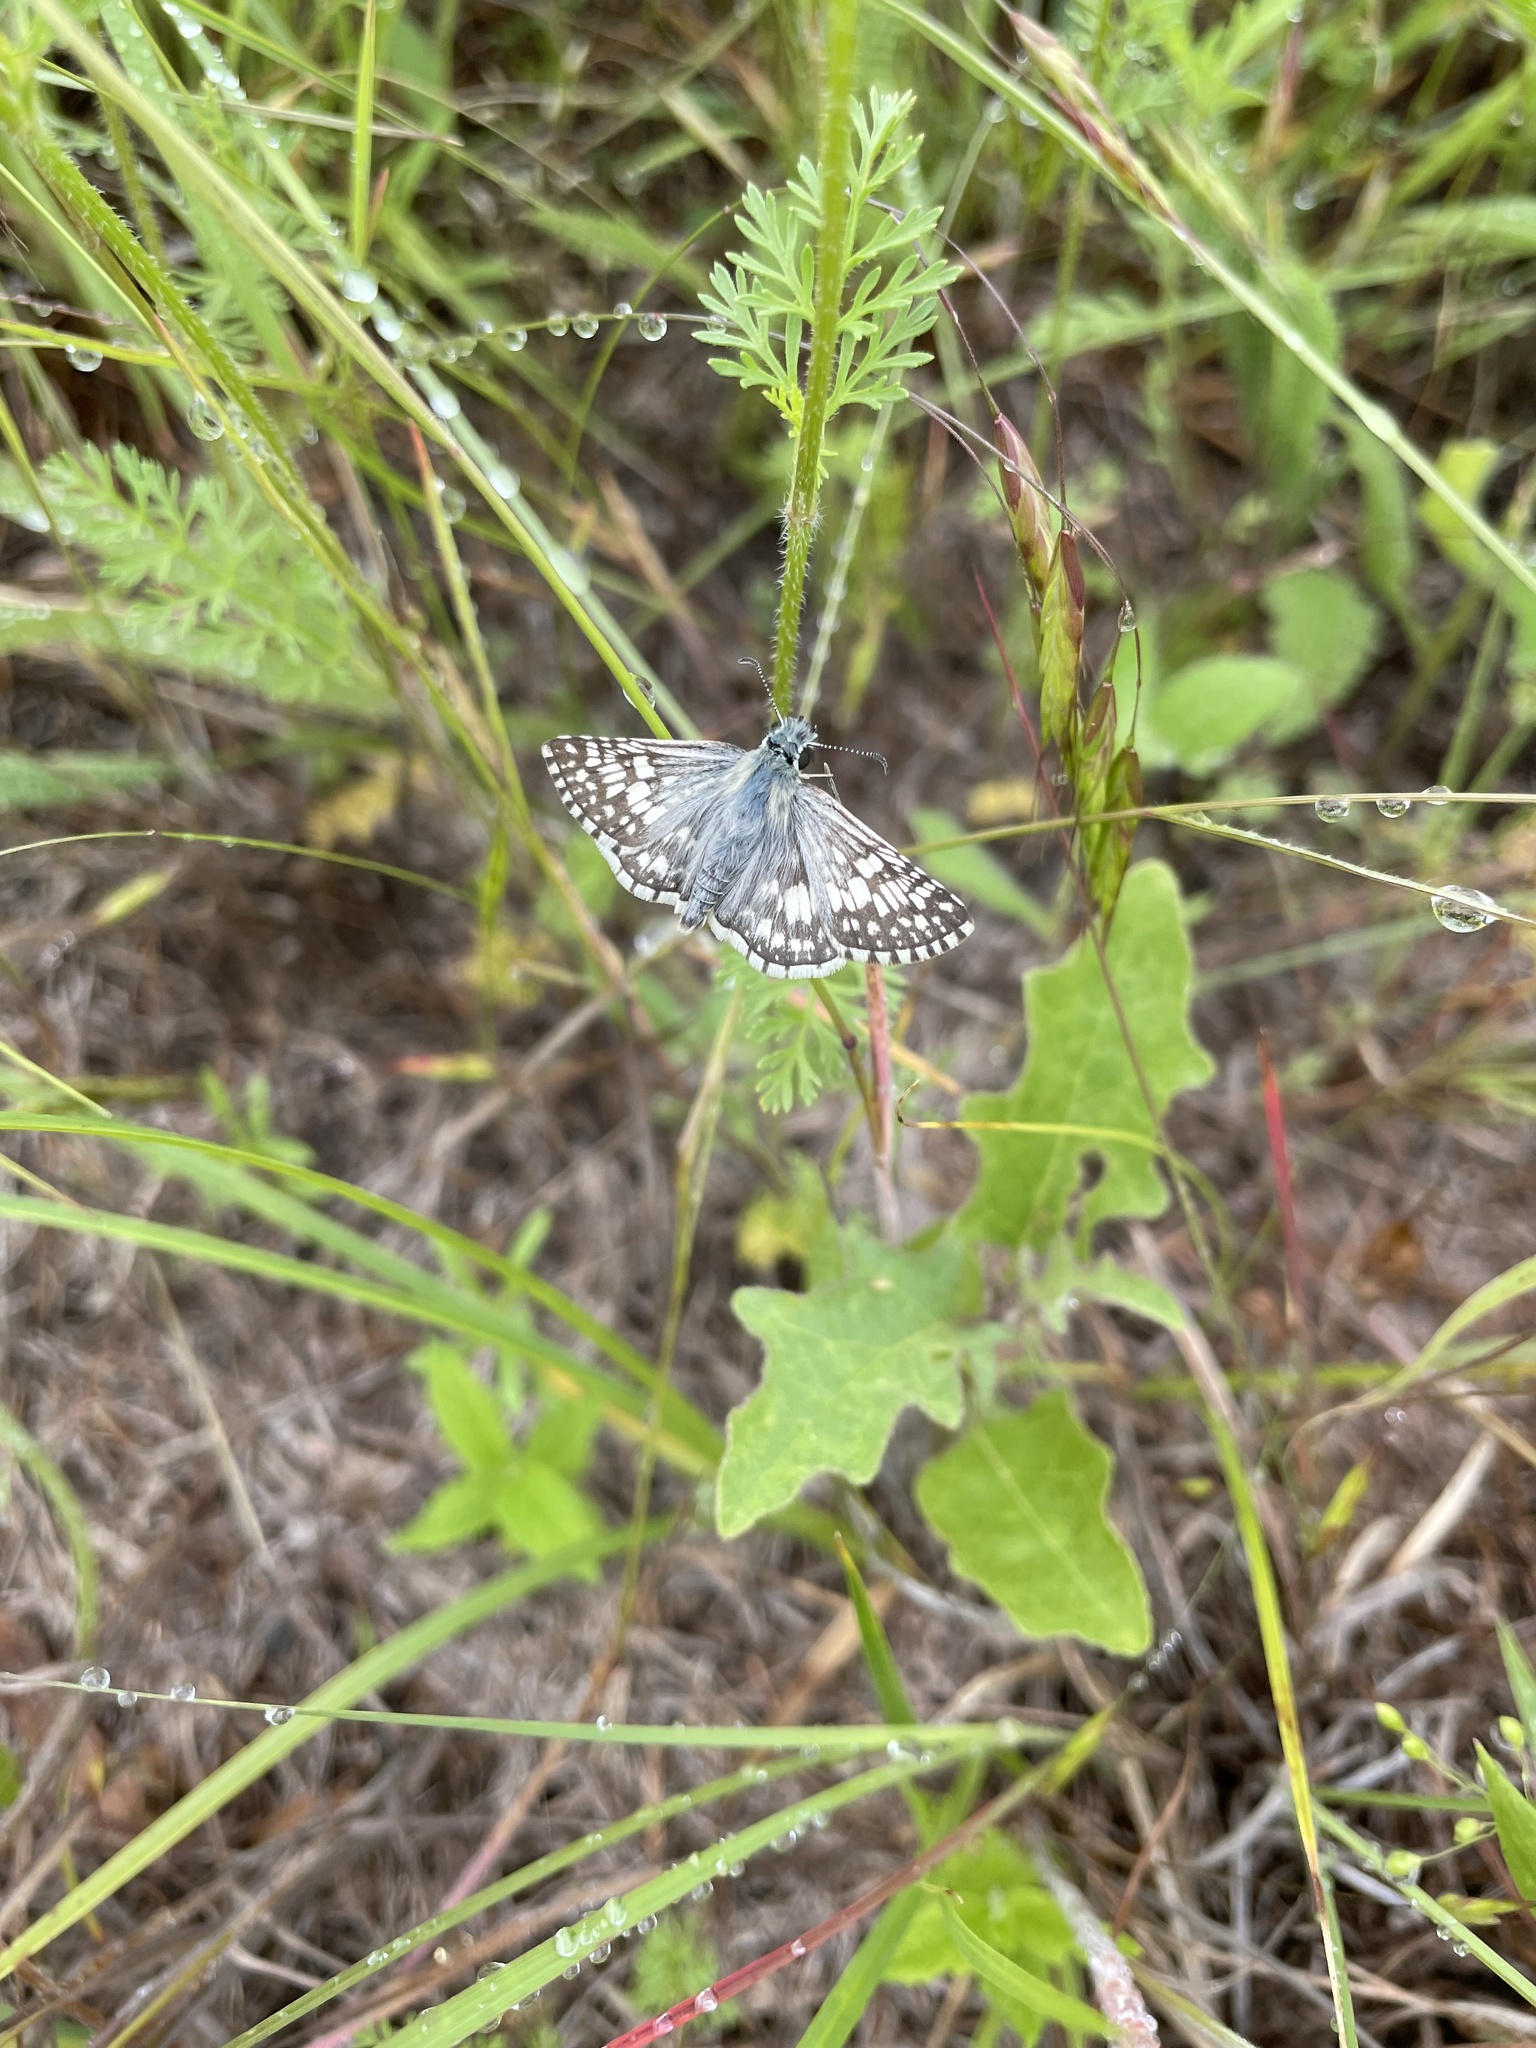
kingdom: Animalia
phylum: Arthropoda
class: Insecta
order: Lepidoptera
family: Hesperiidae
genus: Burnsius
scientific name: Burnsius communis
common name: Common checkered-skipper
